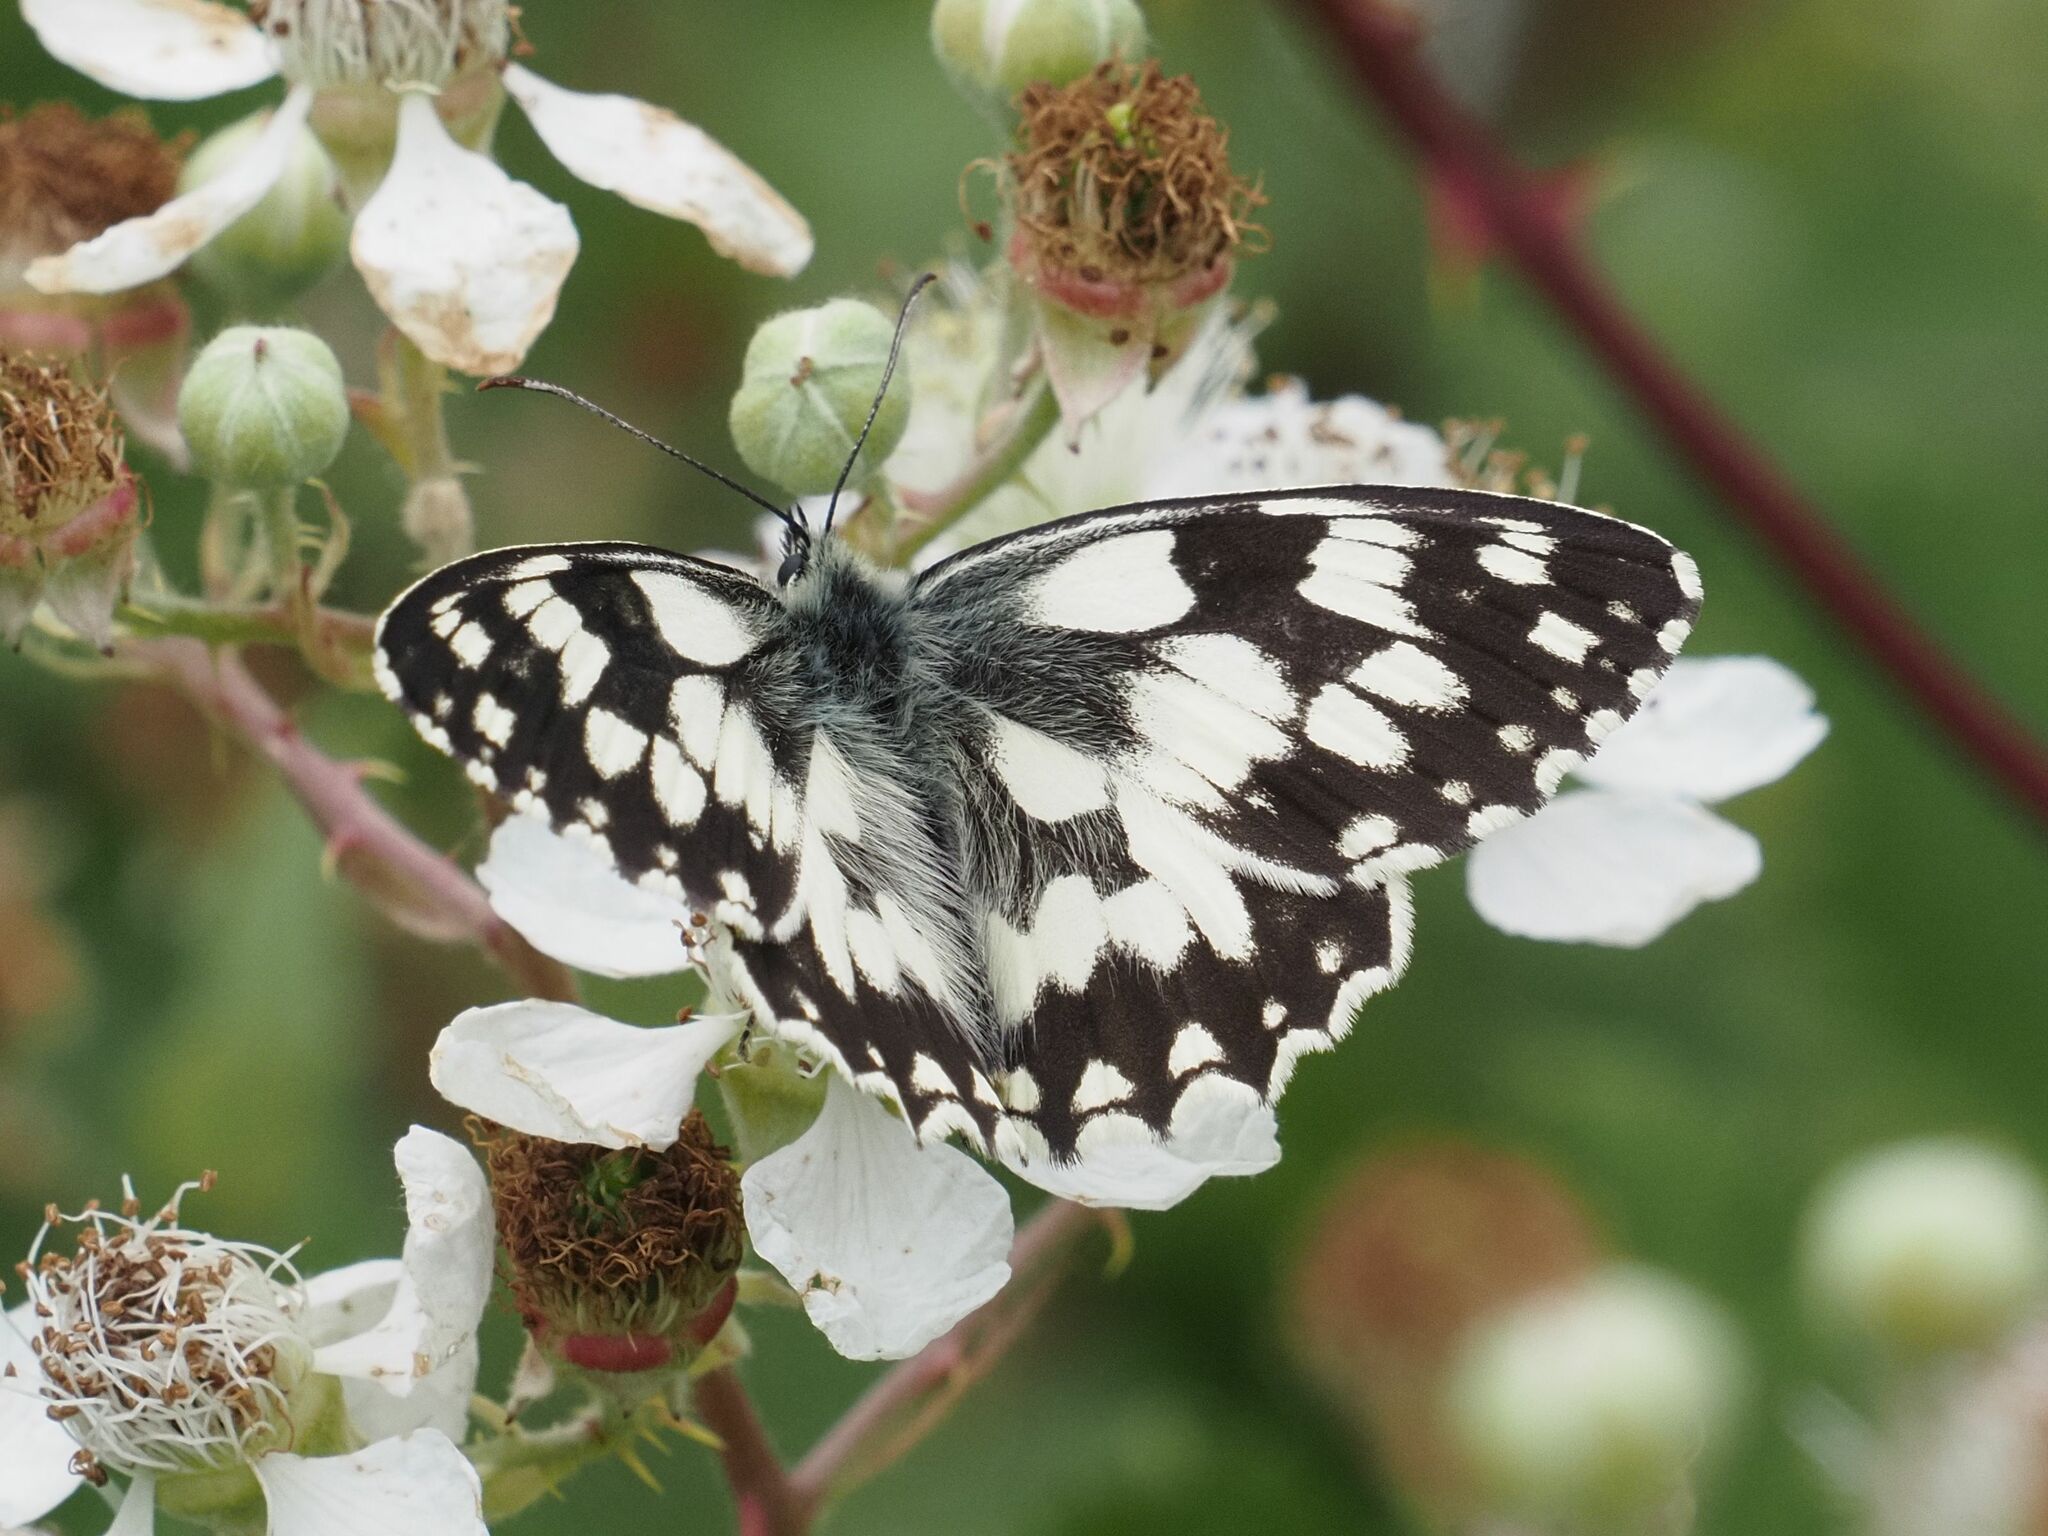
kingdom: Animalia
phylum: Arthropoda
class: Insecta
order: Lepidoptera
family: Nymphalidae
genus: Melanargia
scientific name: Melanargia galathea
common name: Marbled white
